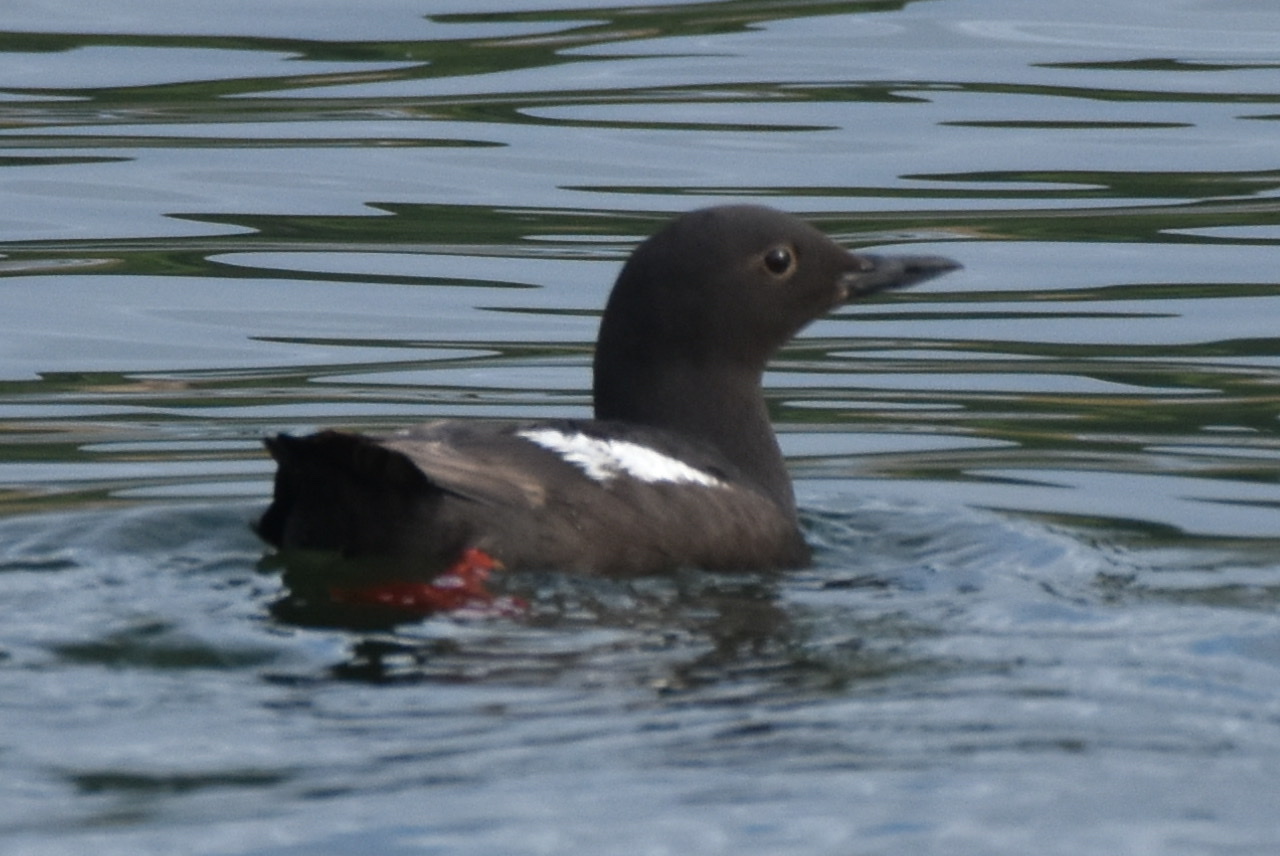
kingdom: Animalia
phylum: Chordata
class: Aves
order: Charadriiformes
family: Alcidae
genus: Cepphus
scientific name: Cepphus columba
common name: Pigeon guillemot
